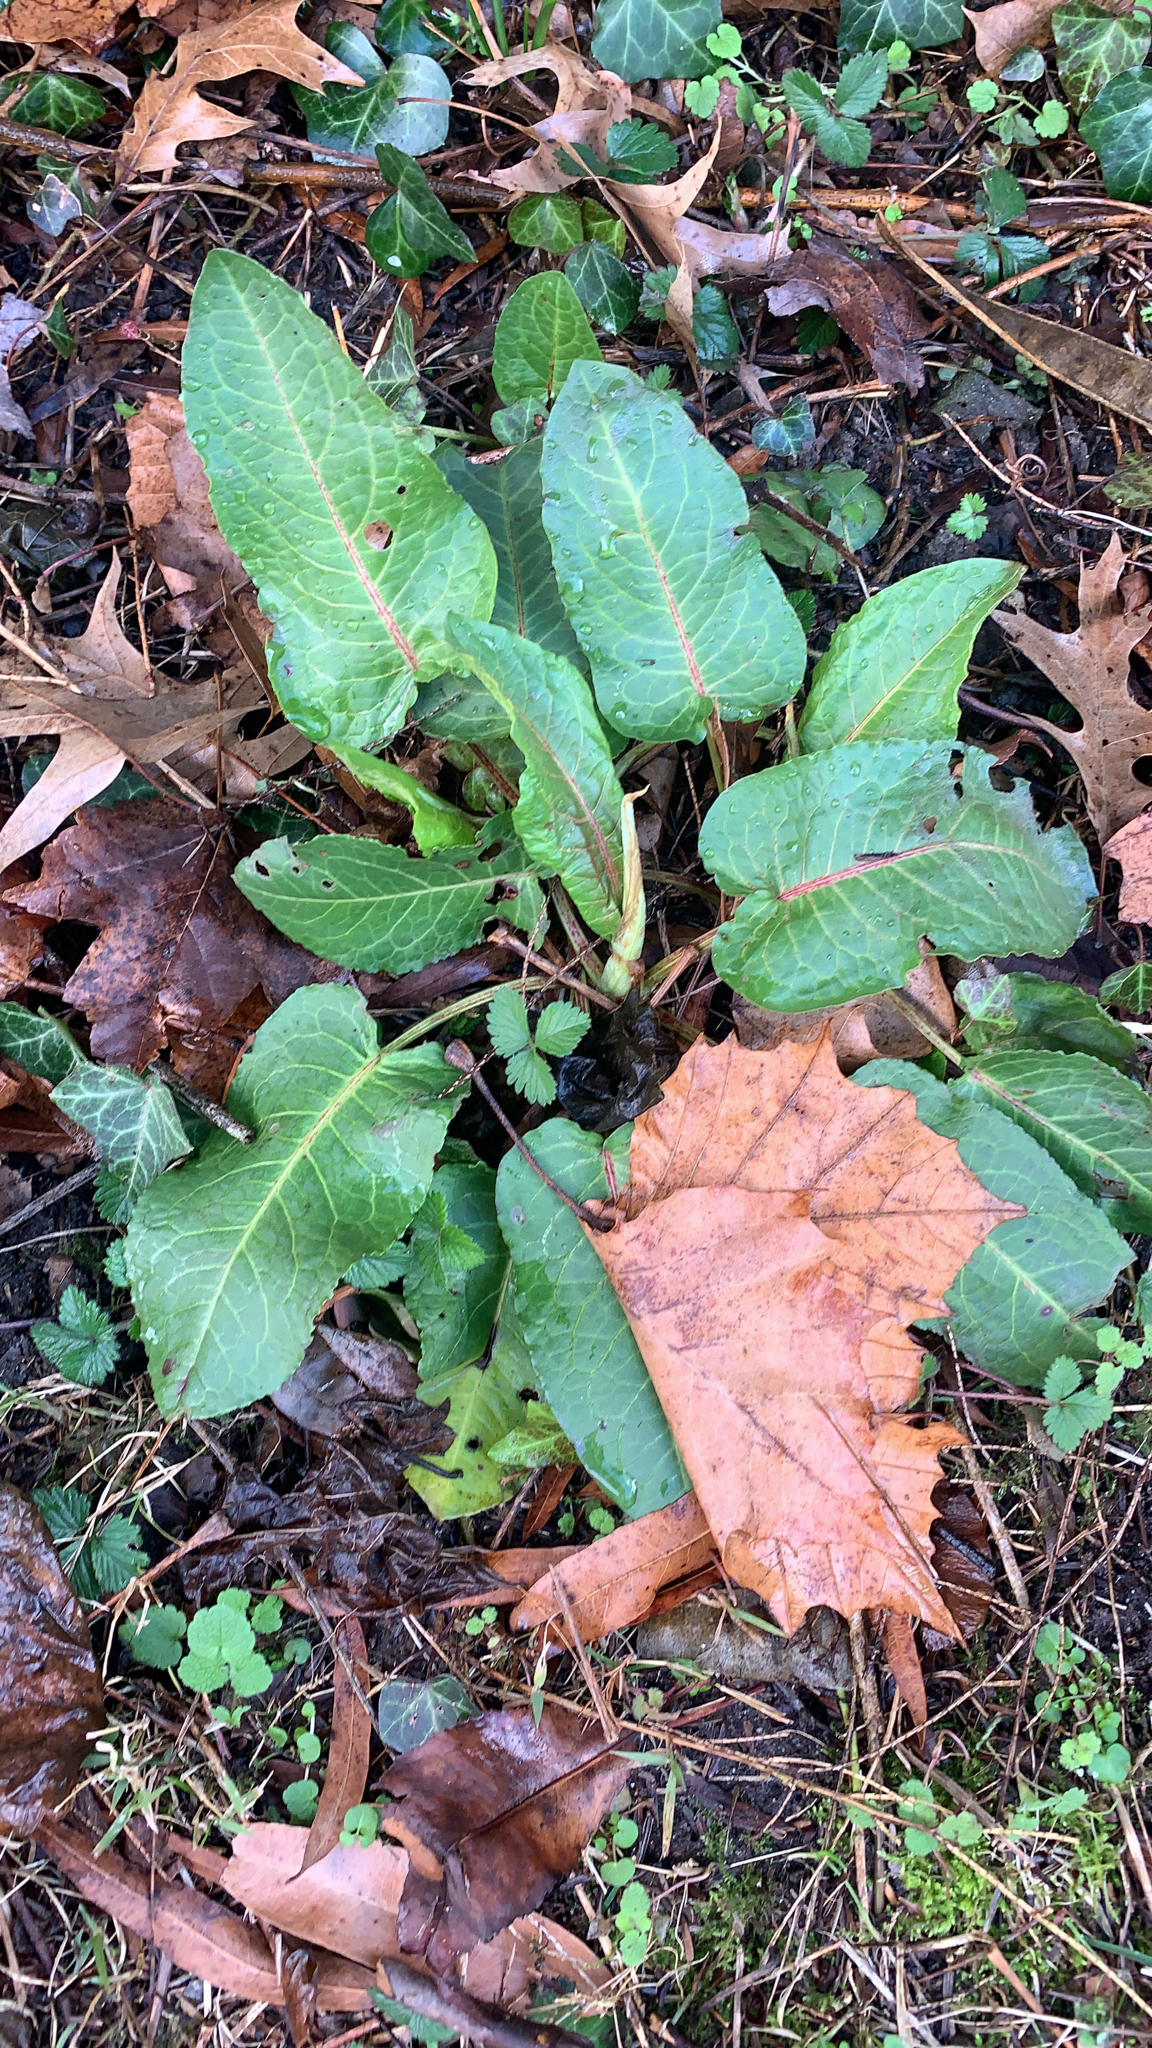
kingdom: Plantae
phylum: Tracheophyta
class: Magnoliopsida
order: Caryophyllales
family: Polygonaceae
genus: Rumex
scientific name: Rumex obtusifolius
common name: Bitter dock
